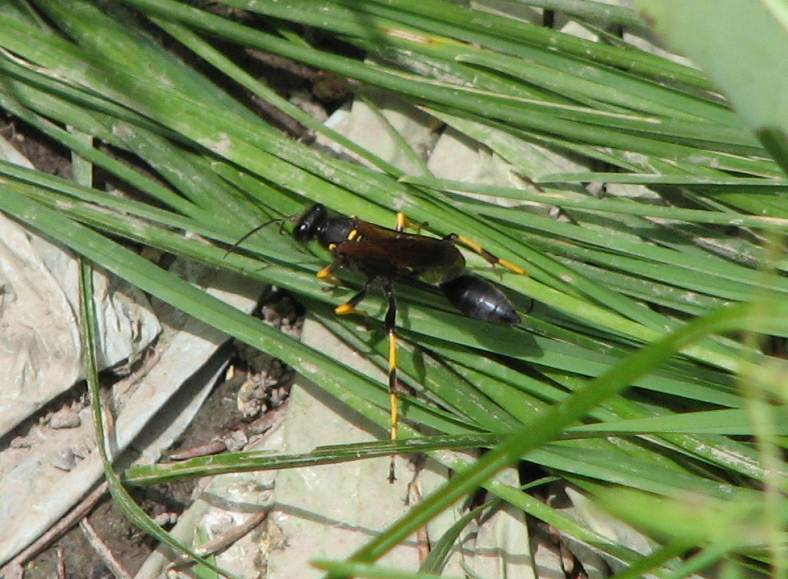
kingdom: Animalia
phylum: Arthropoda
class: Insecta
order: Hymenoptera
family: Sphecidae
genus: Sceliphron
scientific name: Sceliphron caementarium
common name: Mud dauber
